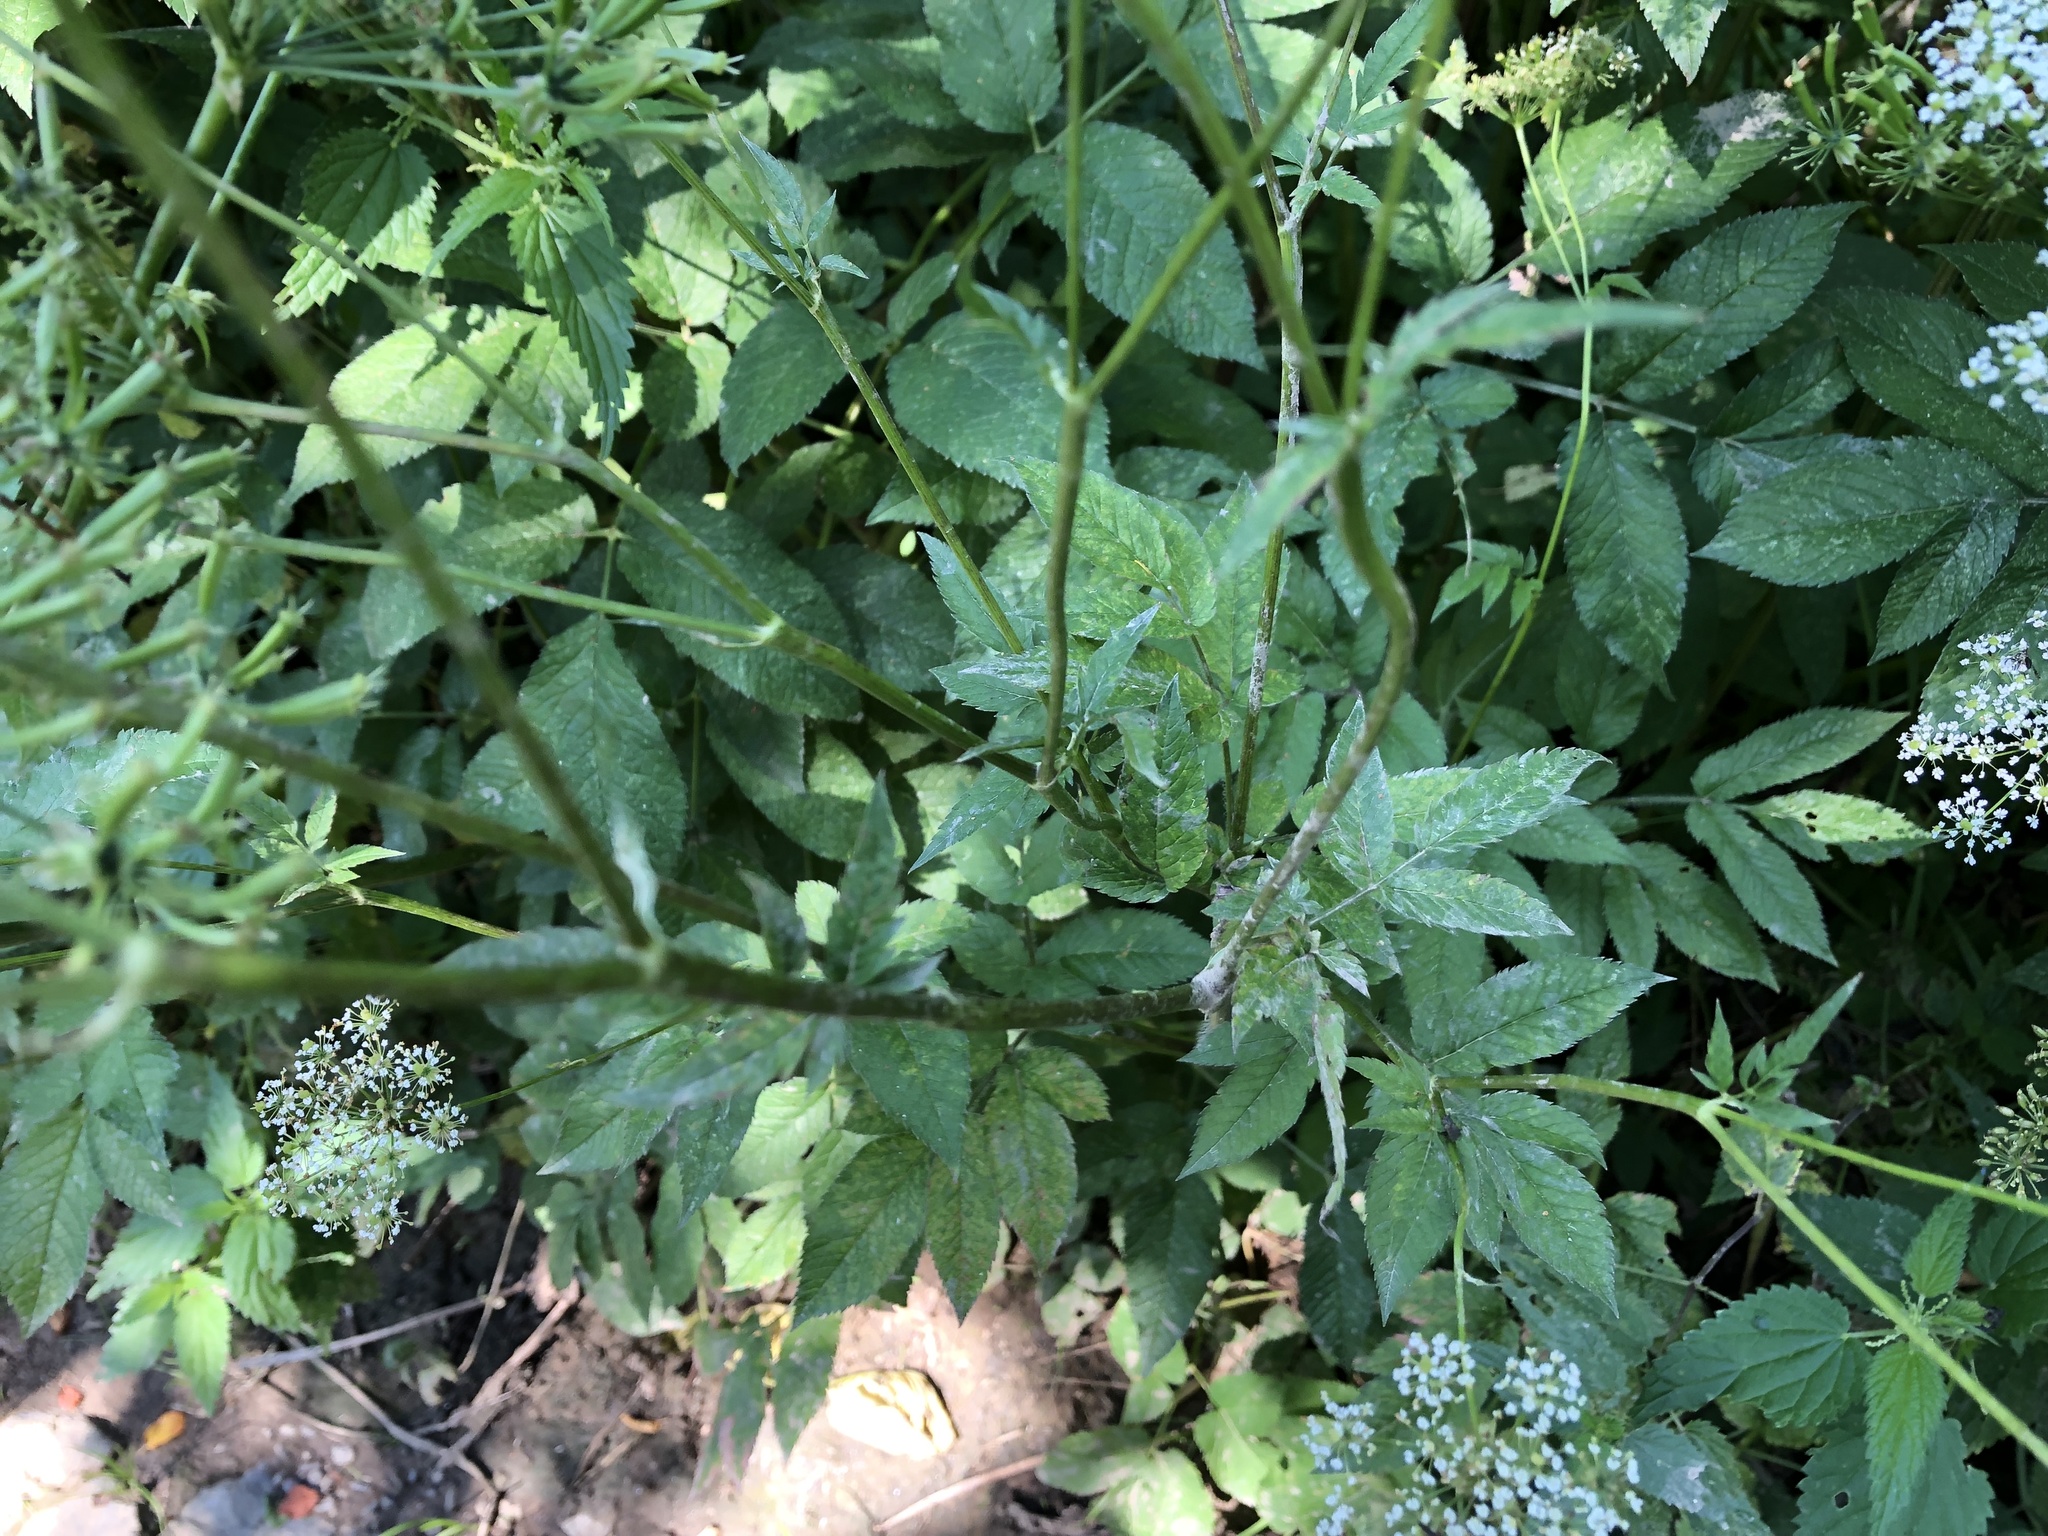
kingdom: Plantae
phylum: Tracheophyta
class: Magnoliopsida
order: Apiales
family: Apiaceae
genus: Chaerophyllum
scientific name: Chaerophyllum aromaticum
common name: Broadleaf chervil
